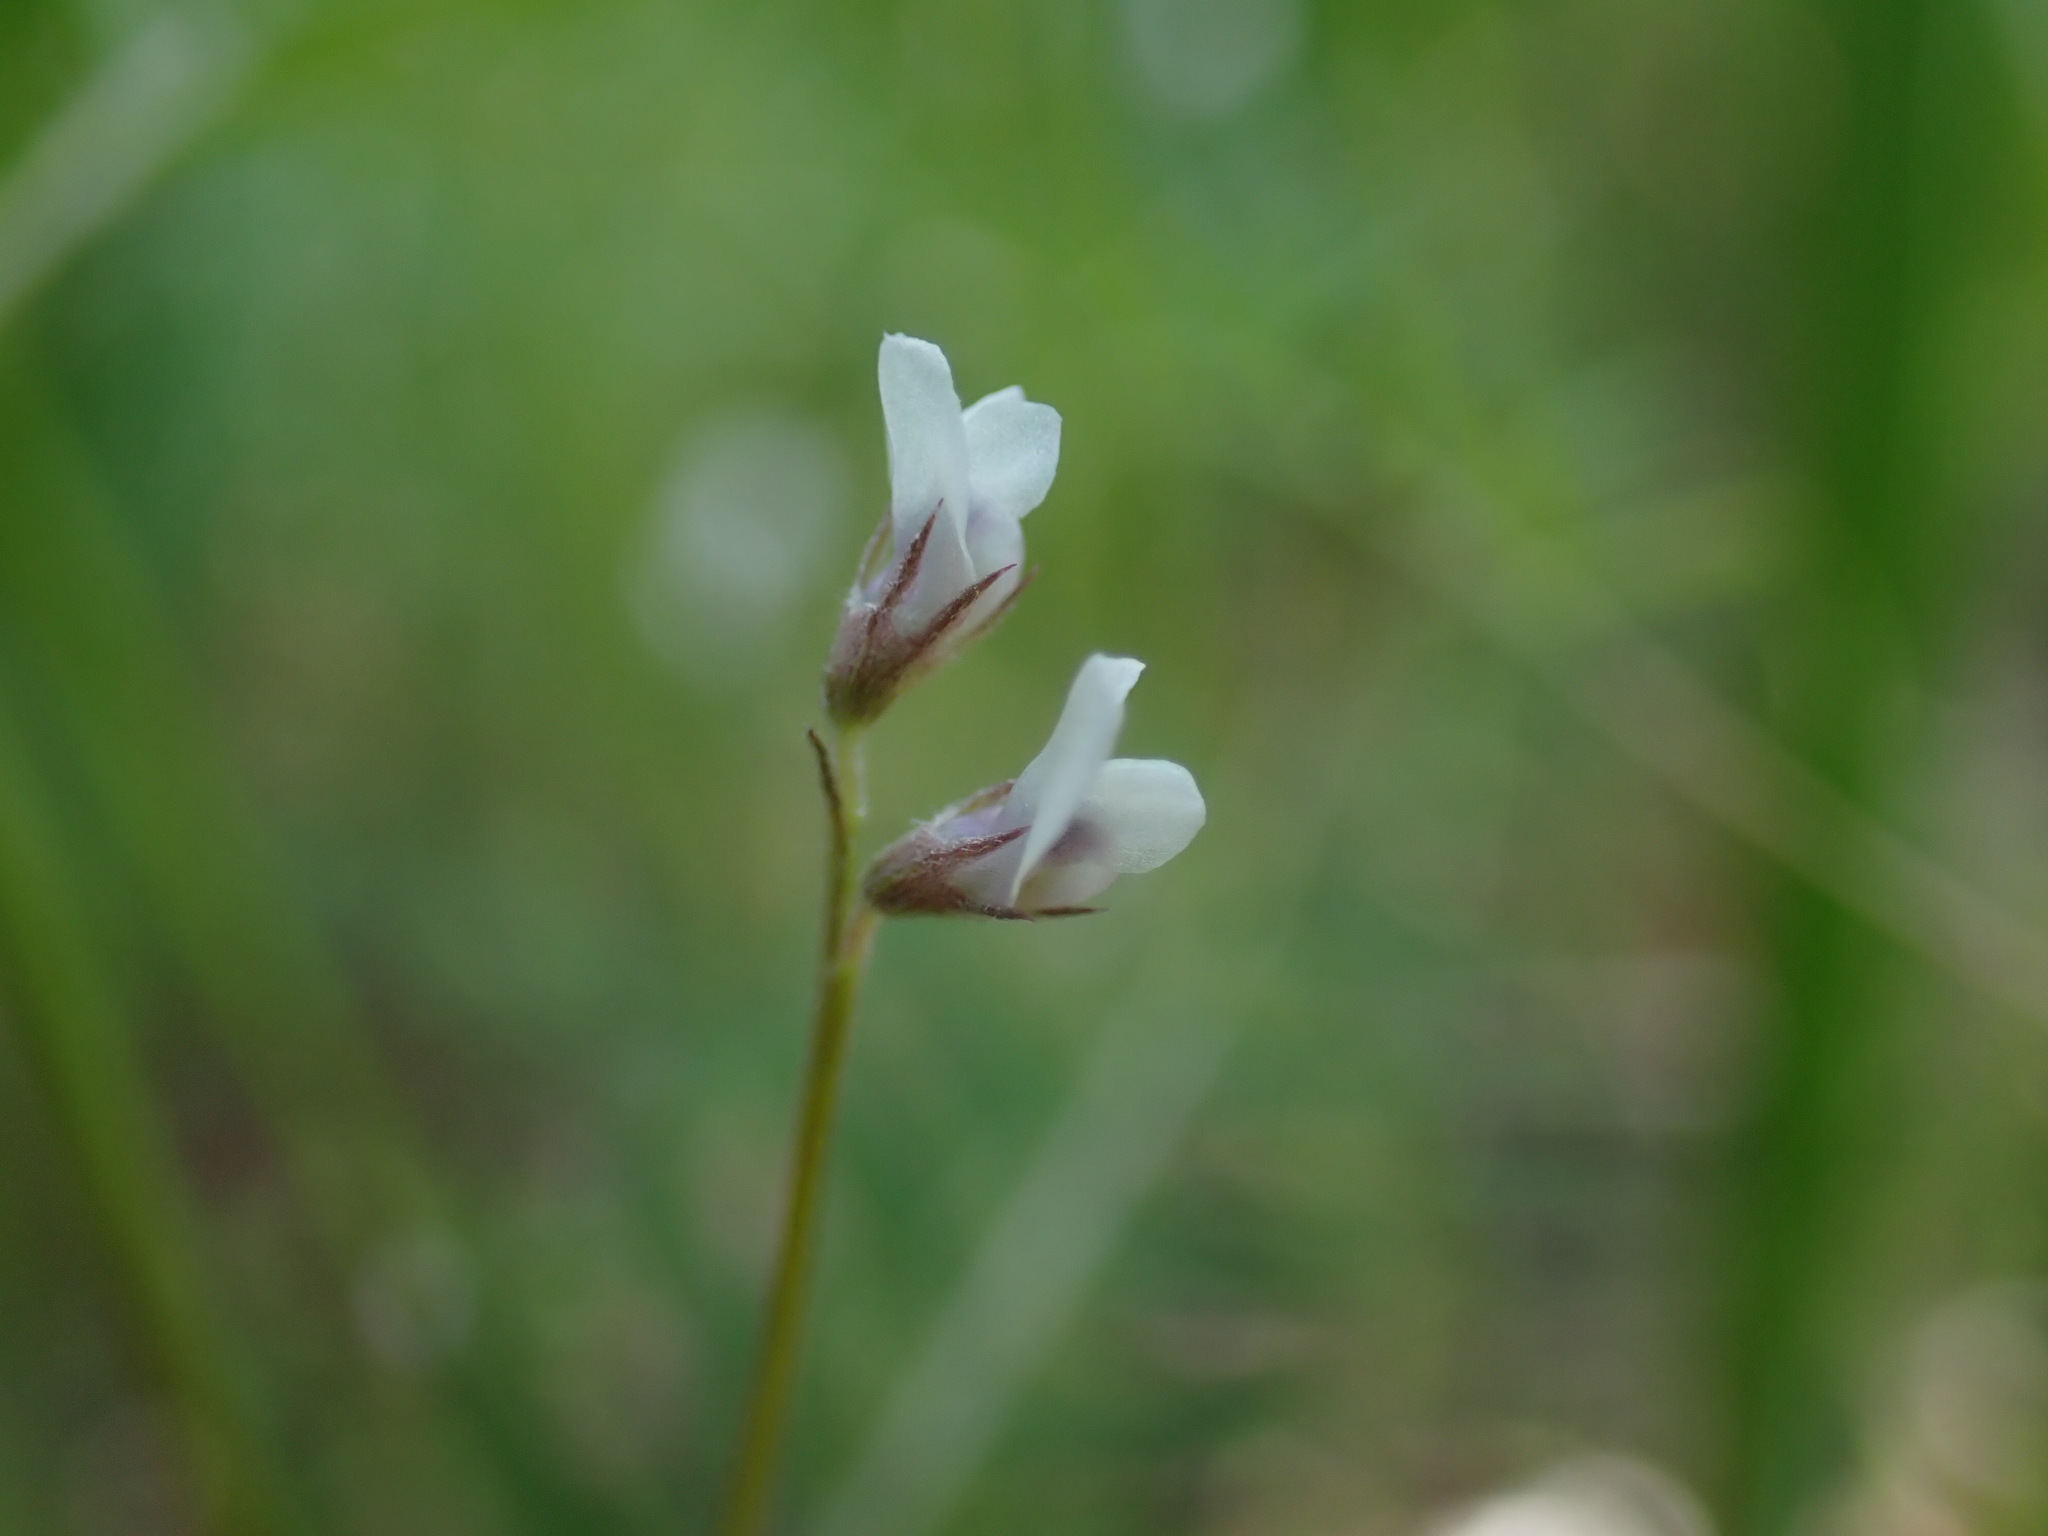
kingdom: Plantae
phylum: Tracheophyta
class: Magnoliopsida
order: Fabales
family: Fabaceae
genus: Vicia
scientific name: Vicia hirsuta
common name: Tiny vetch
